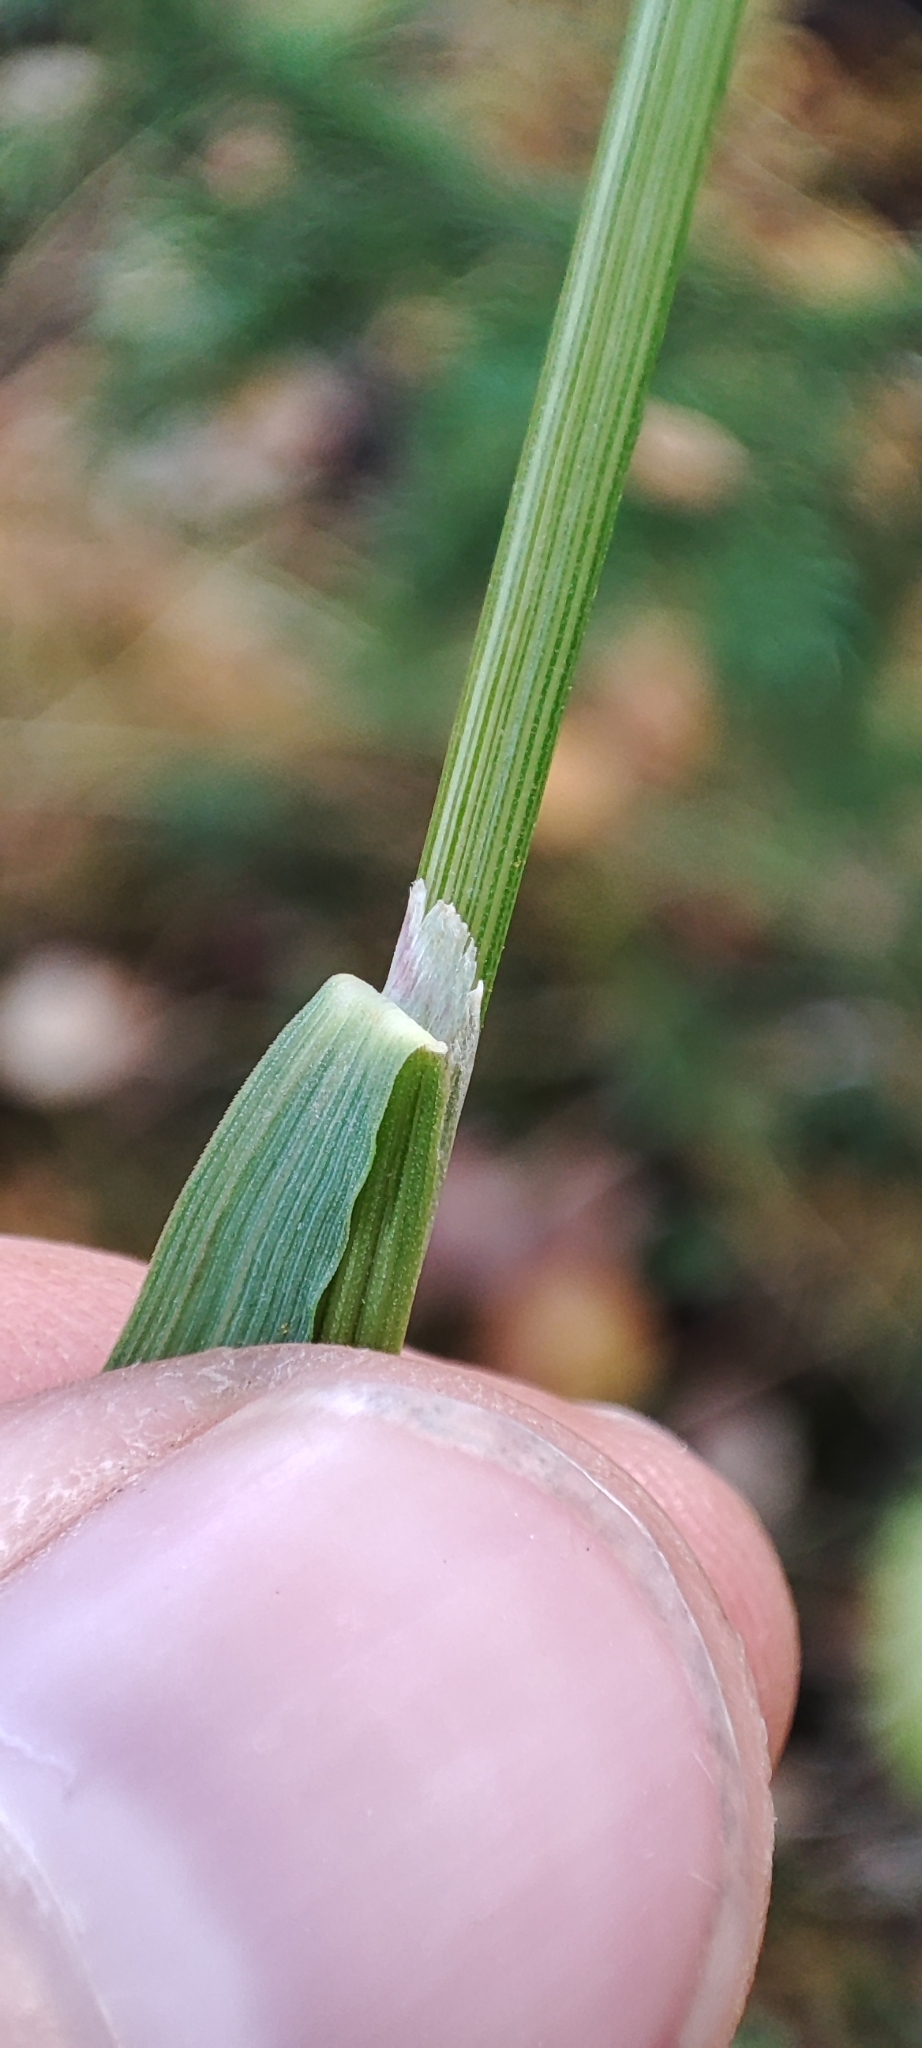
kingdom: Plantae
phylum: Tracheophyta
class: Liliopsida
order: Poales
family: Poaceae
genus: Calamagrostis
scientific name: Calamagrostis lapponica
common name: Lapland reedgrass
